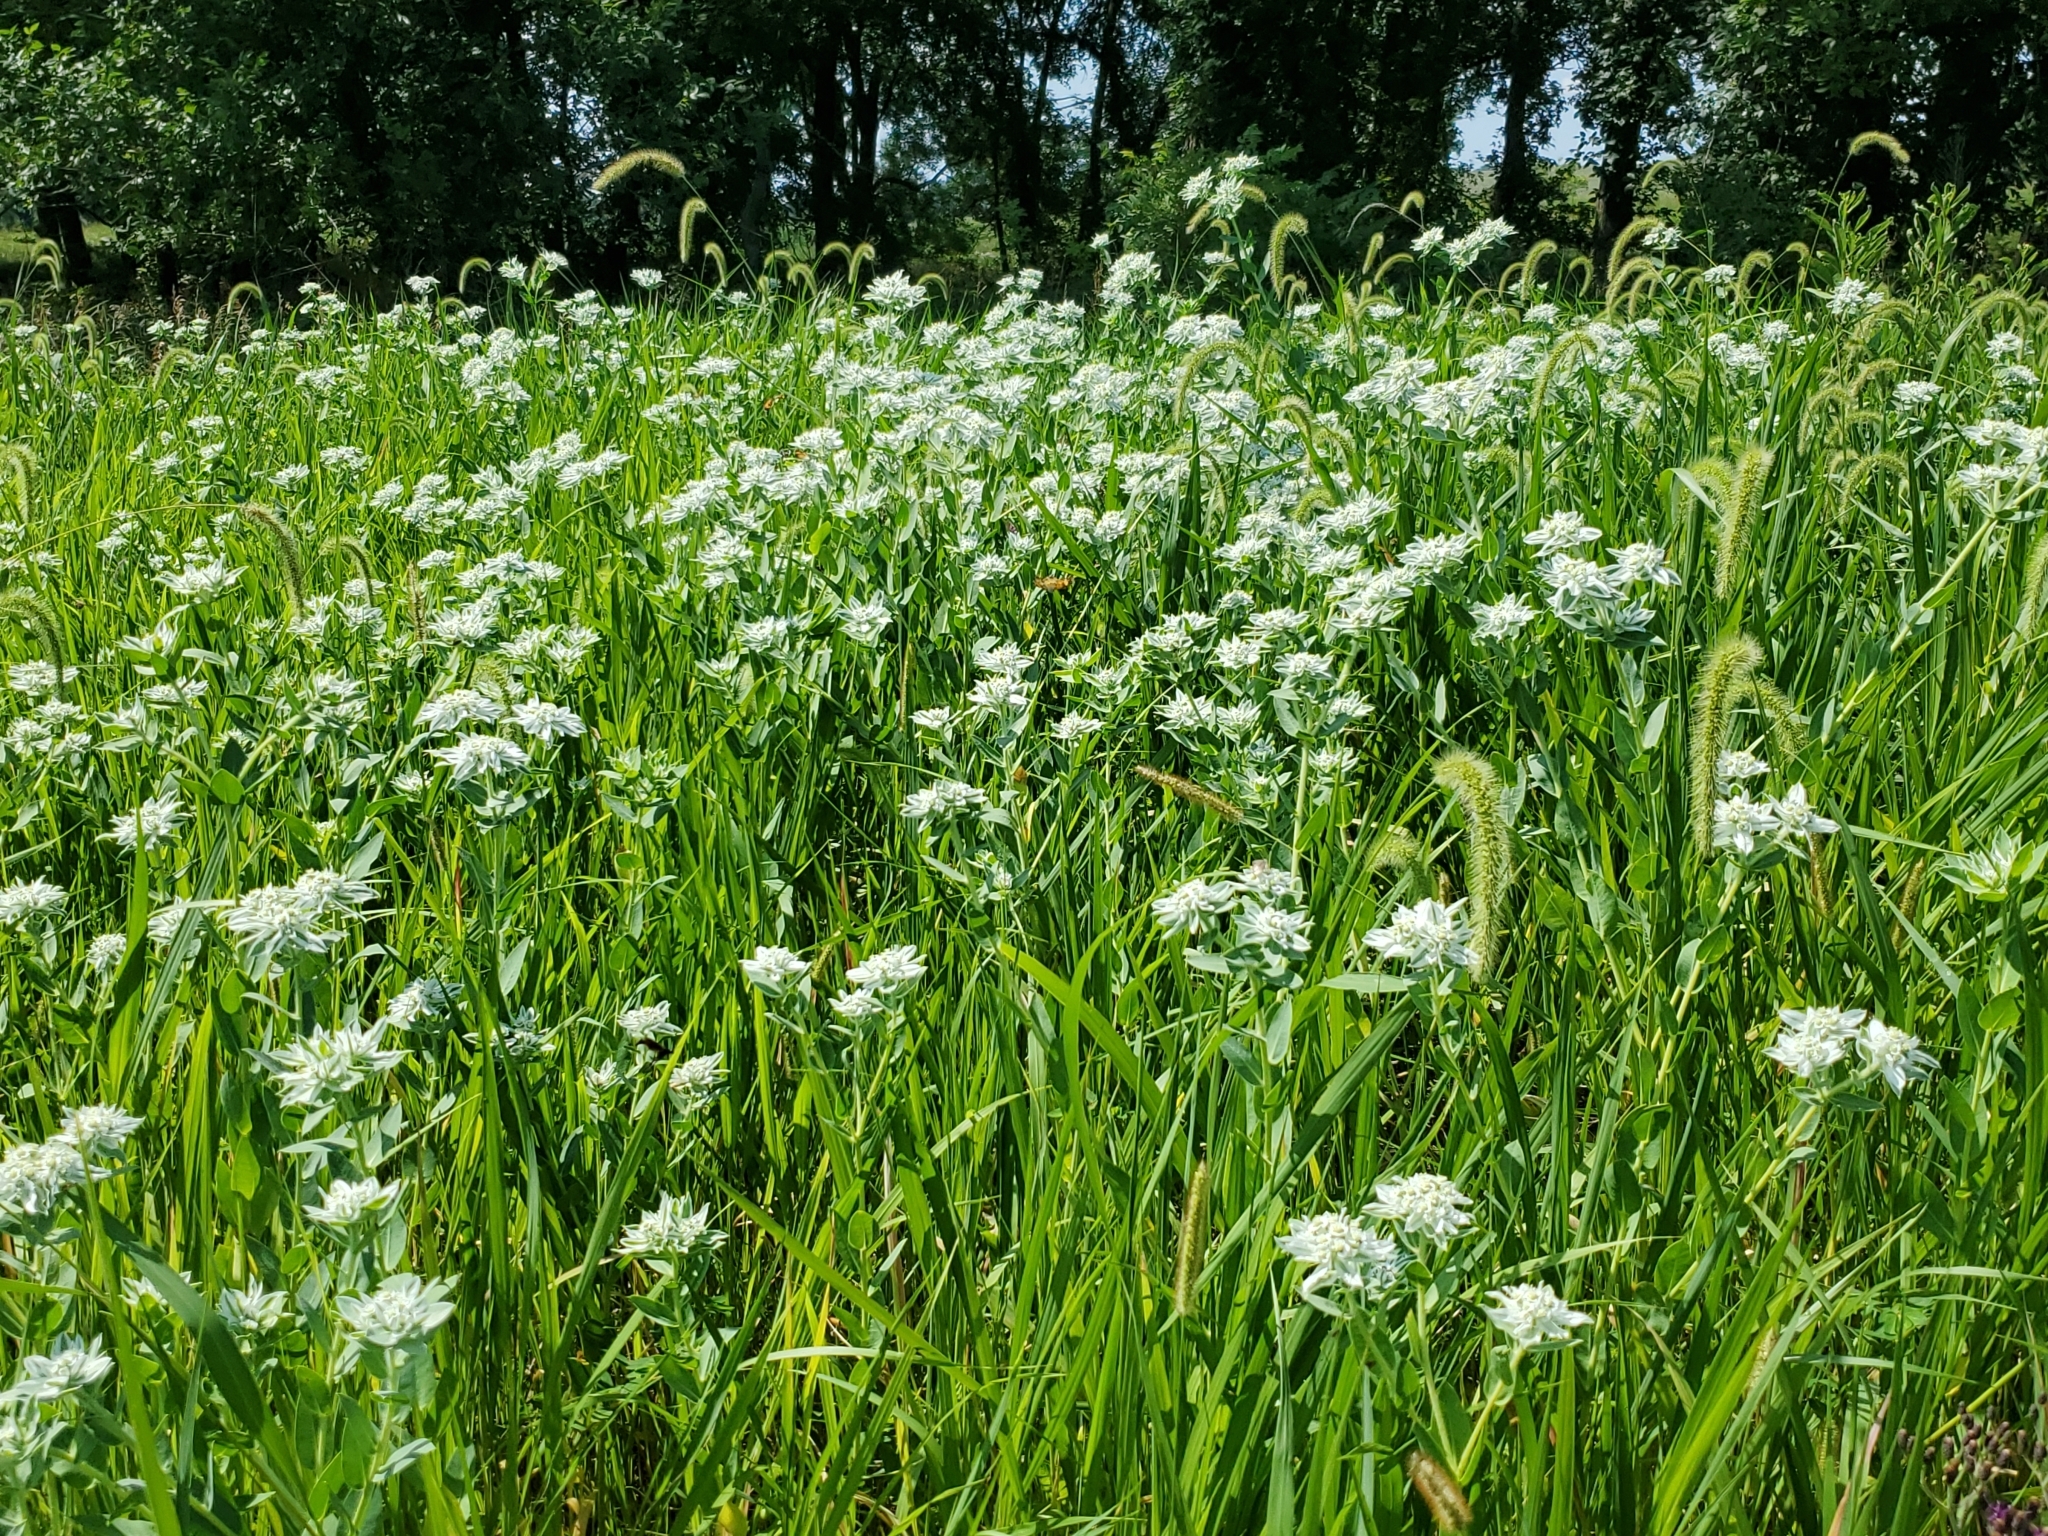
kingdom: Plantae
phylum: Tracheophyta
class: Magnoliopsida
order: Malpighiales
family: Euphorbiaceae
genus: Euphorbia
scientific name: Euphorbia marginata
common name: Ghostweed
